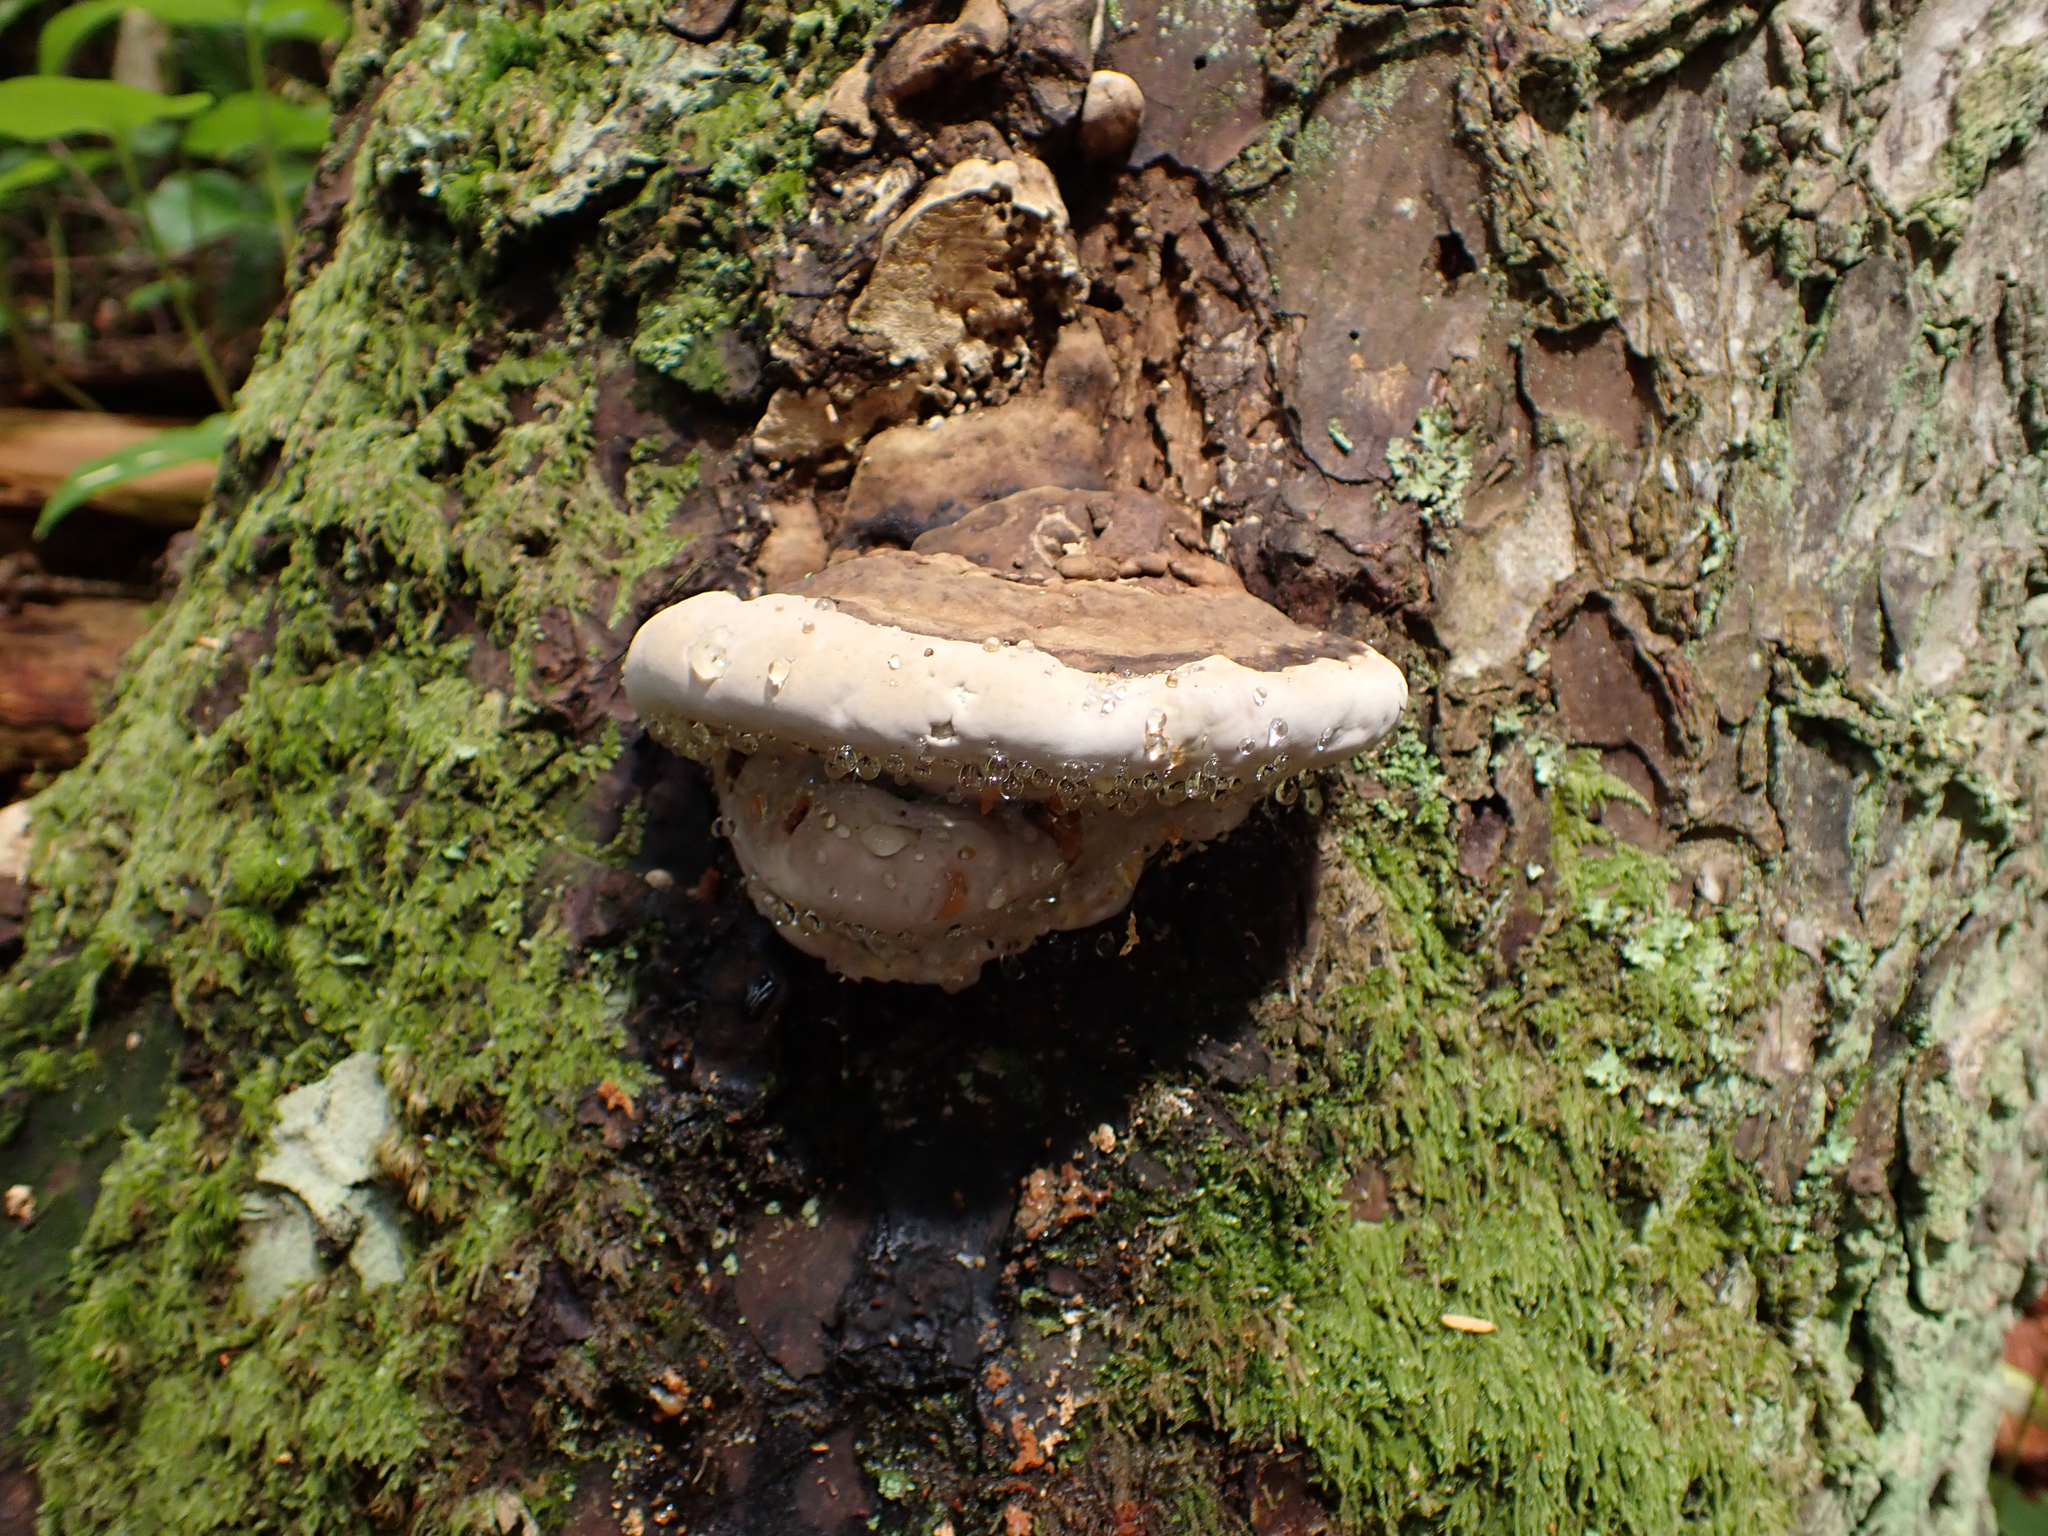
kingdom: Fungi
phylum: Basidiomycota
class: Agaricomycetes
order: Polyporales
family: Fomitopsidaceae
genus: Fomitopsis
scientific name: Fomitopsis ochracea
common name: American brown fomitopsis
